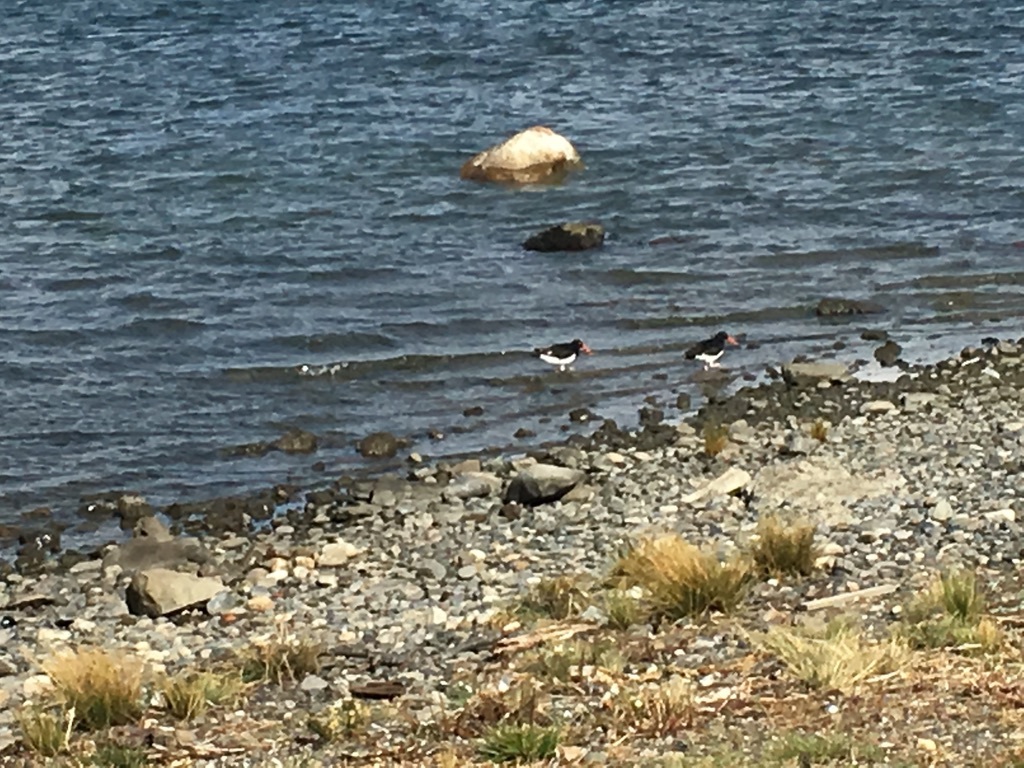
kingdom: Animalia
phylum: Chordata
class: Aves
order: Charadriiformes
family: Haematopodidae
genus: Haematopus
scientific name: Haematopus leucopodus
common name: Magellanic oystercatcher
